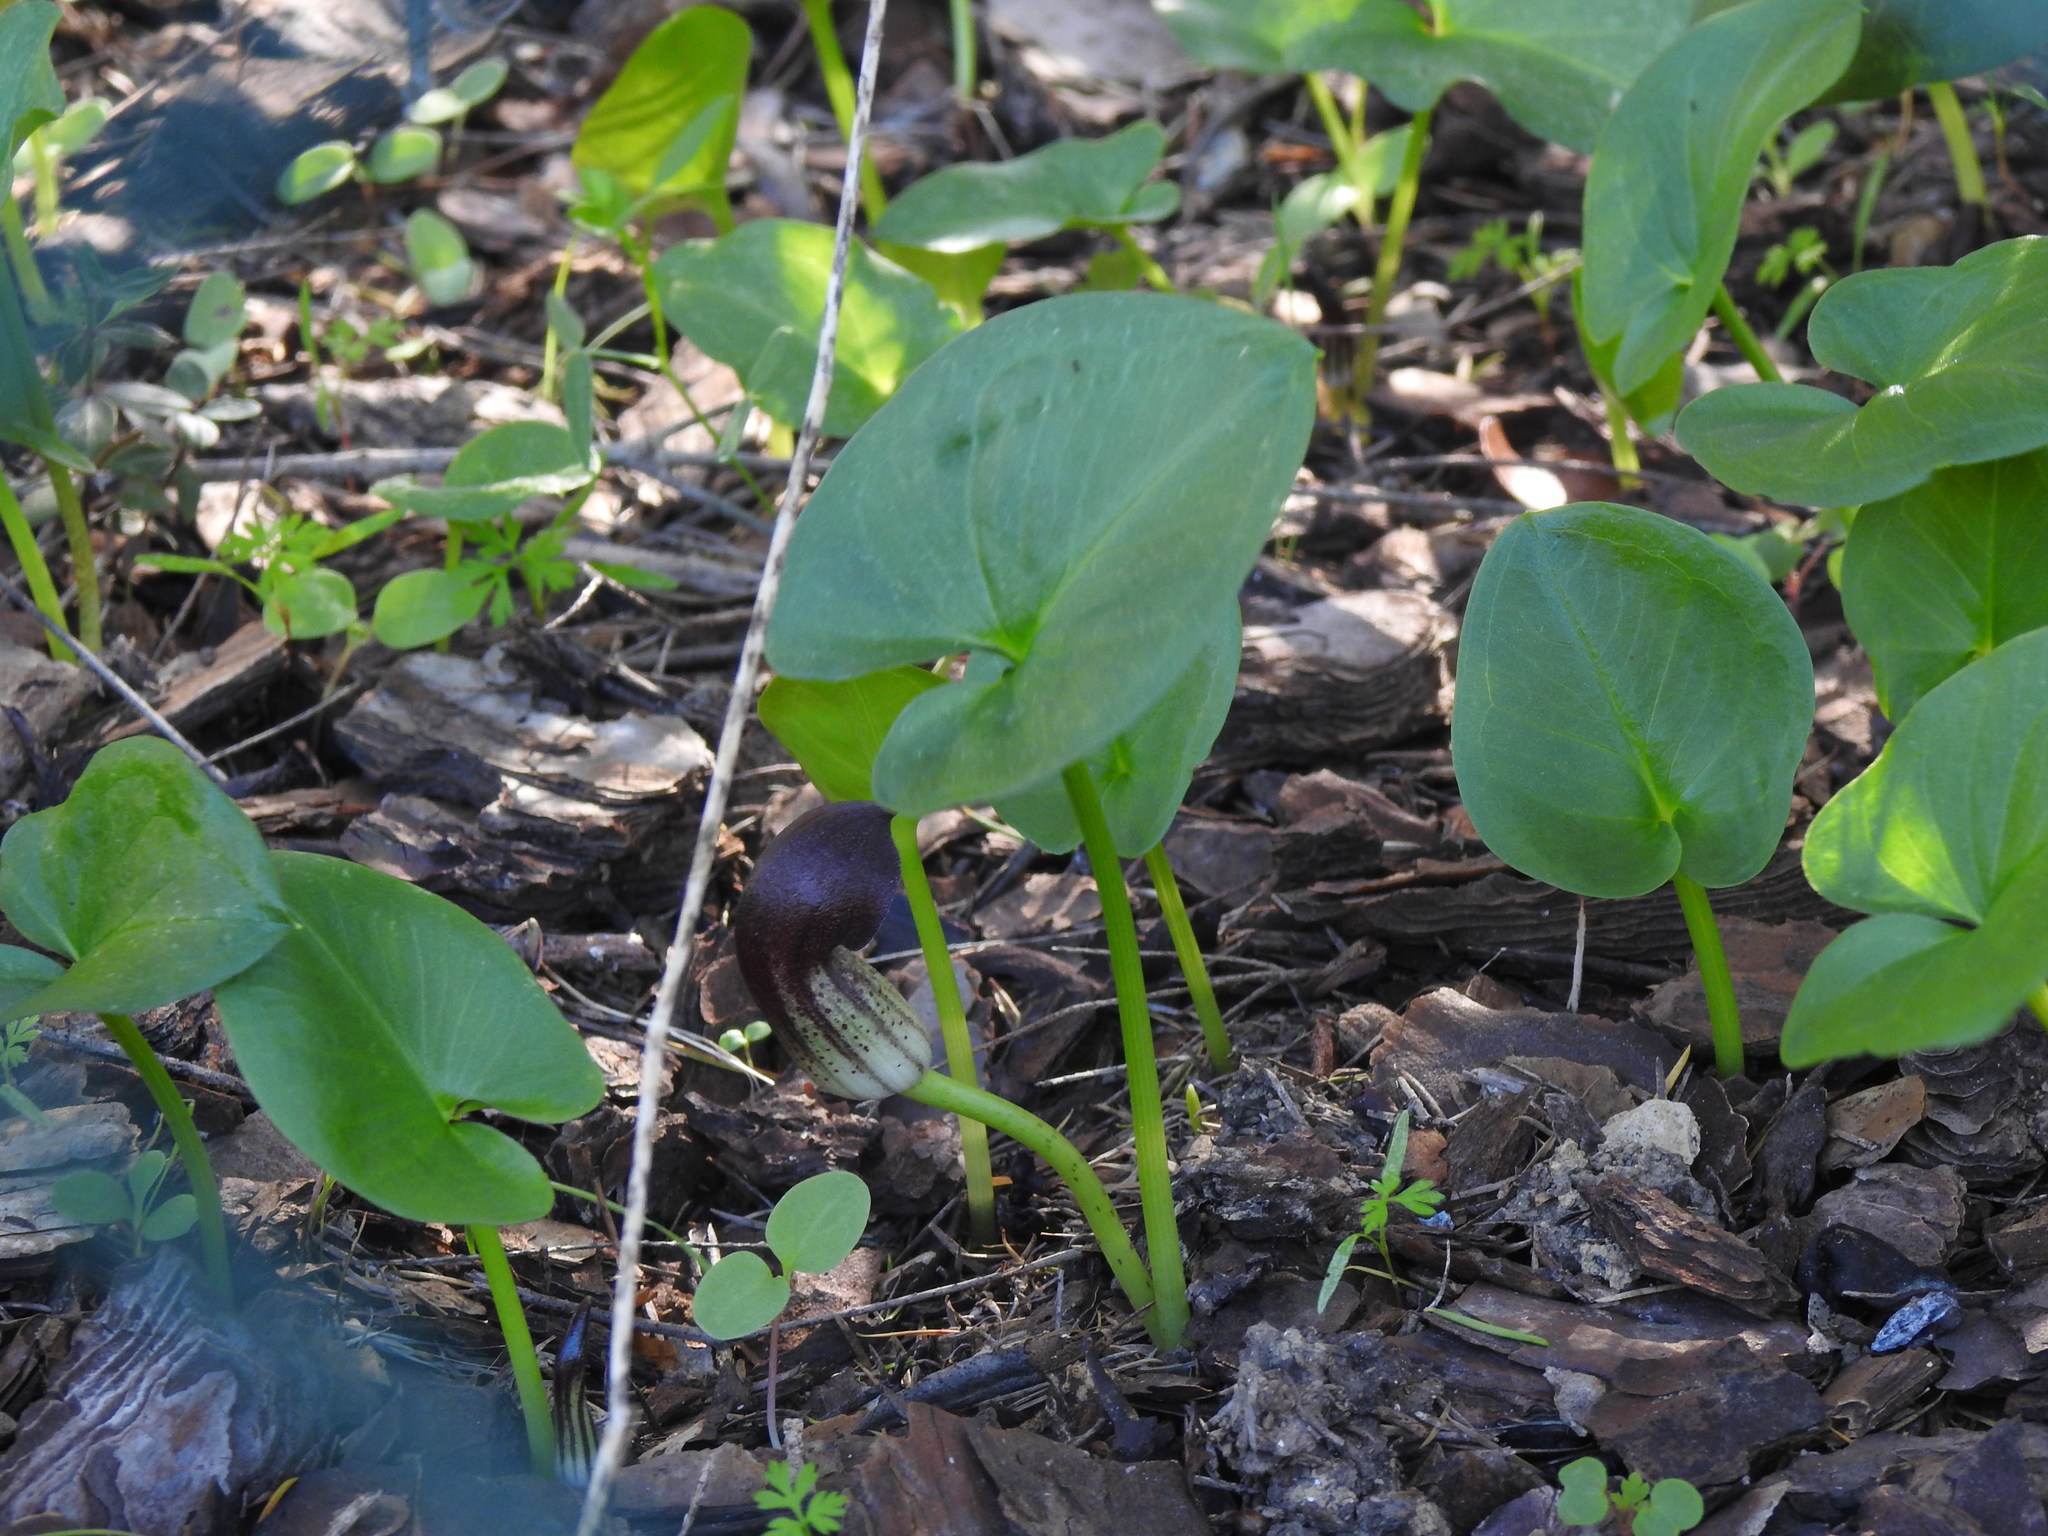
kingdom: Plantae
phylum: Tracheophyta
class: Liliopsida
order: Alismatales
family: Araceae
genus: Arisarum
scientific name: Arisarum simorrhinum
